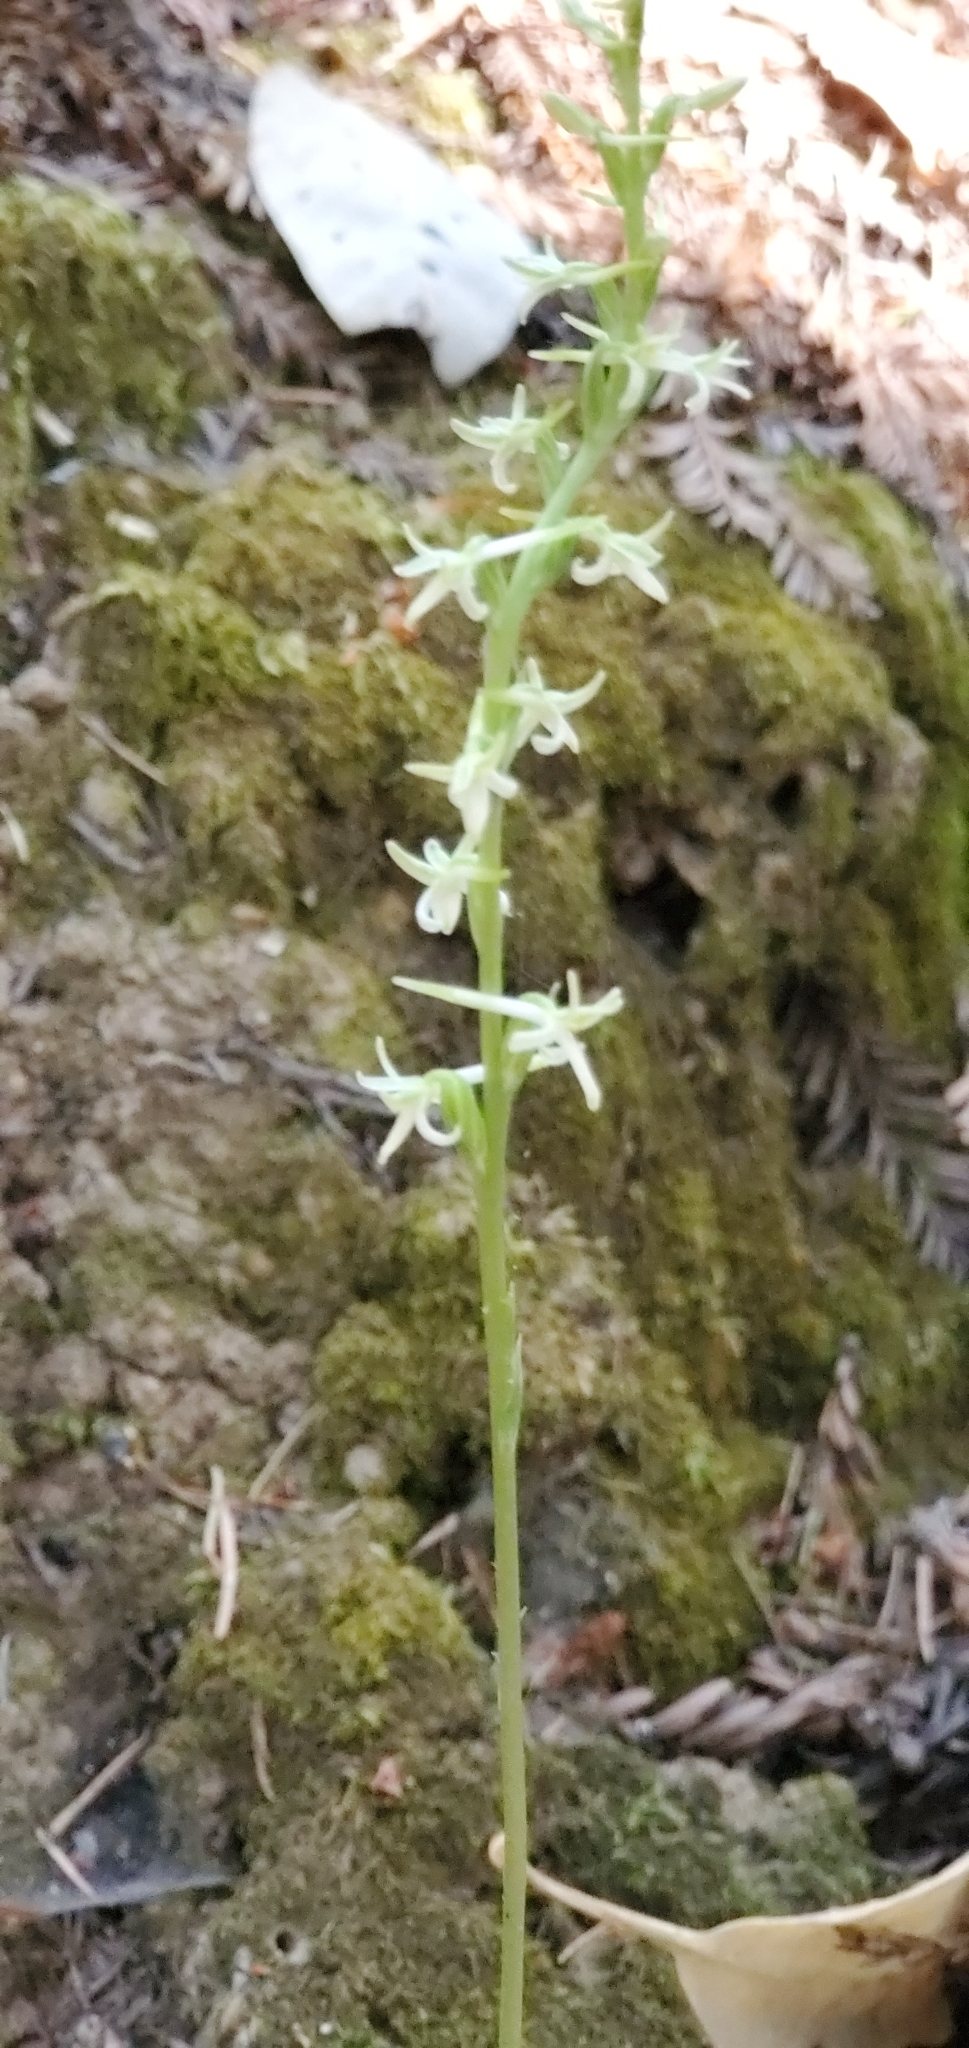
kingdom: Plantae
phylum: Tracheophyta
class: Liliopsida
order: Asparagales
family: Orchidaceae
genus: Platanthera
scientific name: Platanthera transversa
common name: Royal rein orchid
